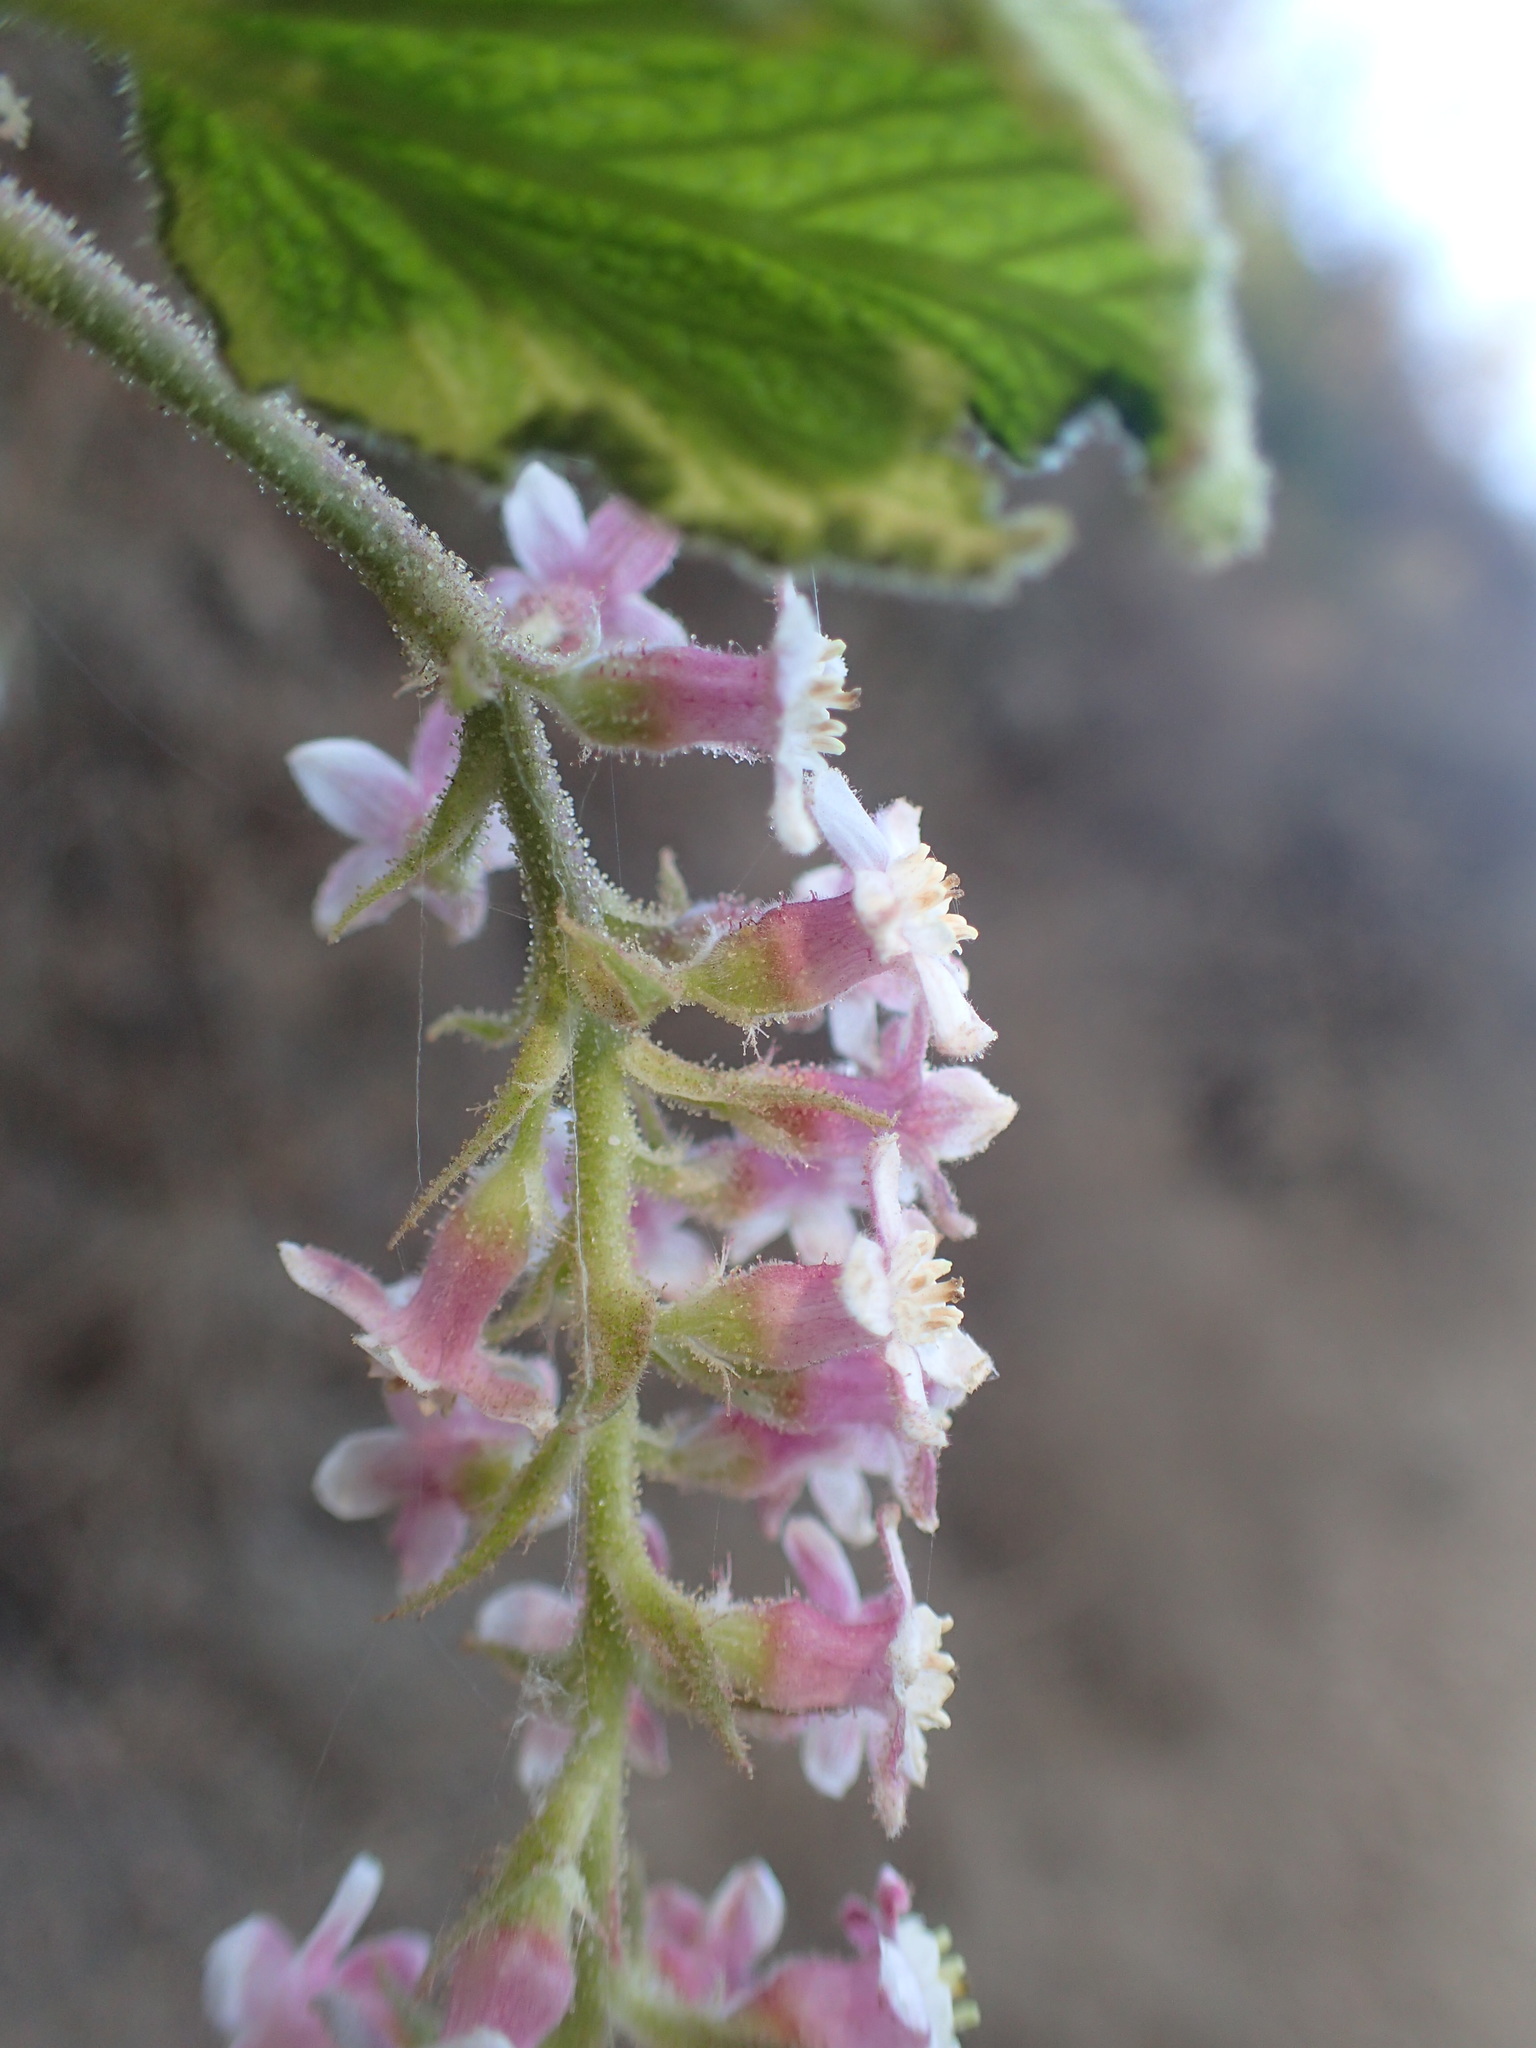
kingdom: Plantae
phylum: Tracheophyta
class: Magnoliopsida
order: Saxifragales
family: Grossulariaceae
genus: Ribes
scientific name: Ribes malvaceum
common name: Chaparral currant
